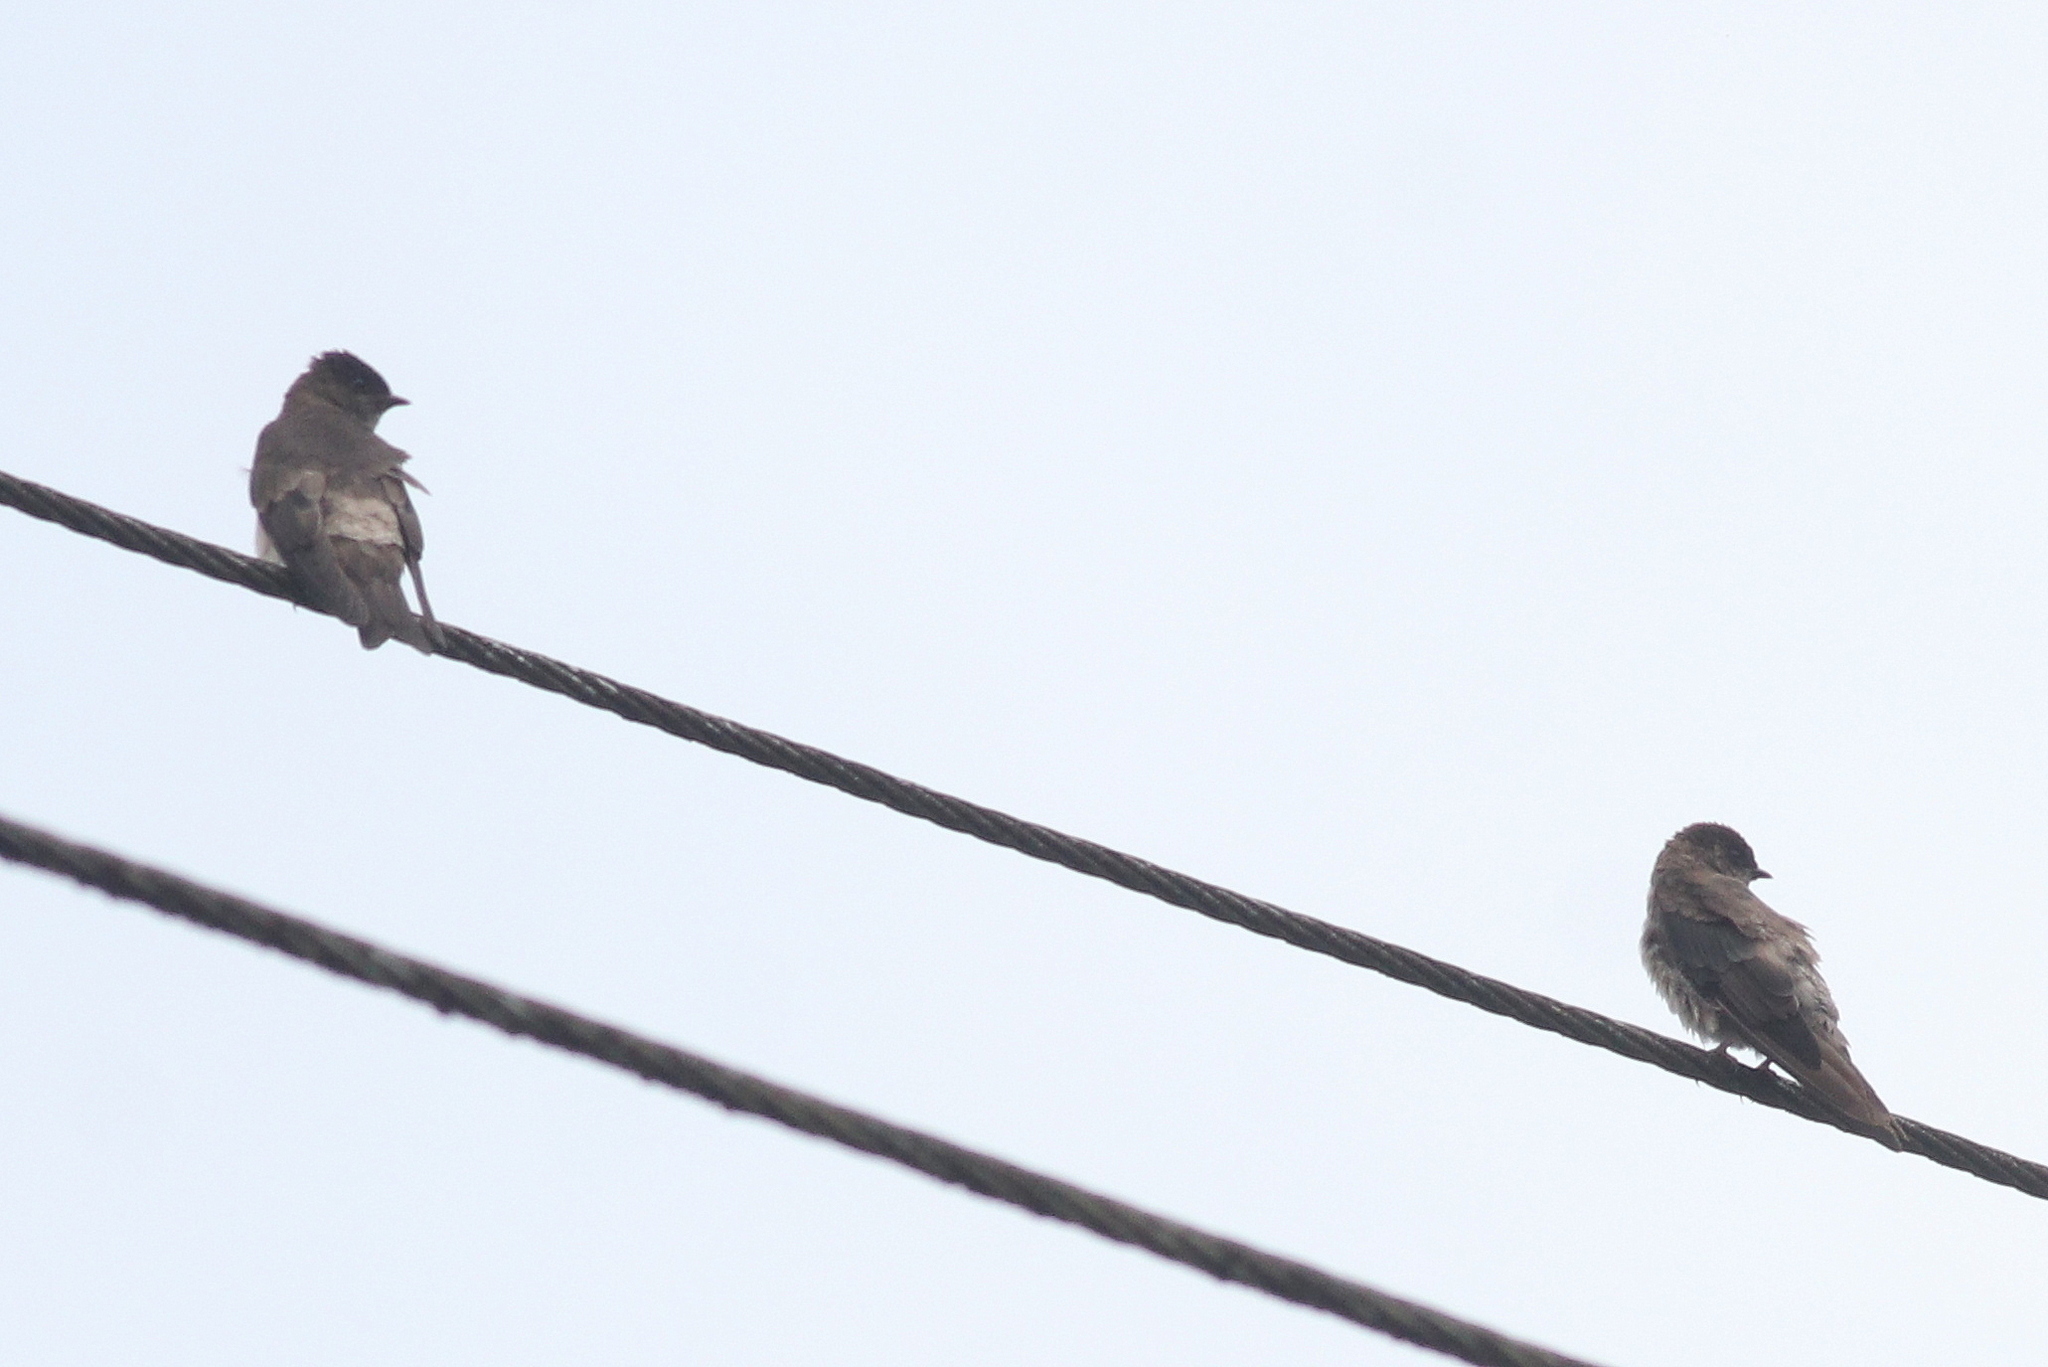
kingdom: Animalia
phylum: Chordata
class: Aves
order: Passeriformes
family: Hirundinidae
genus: Stelgidopteryx
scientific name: Stelgidopteryx ruficollis
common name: Southern rough-winged swallow
